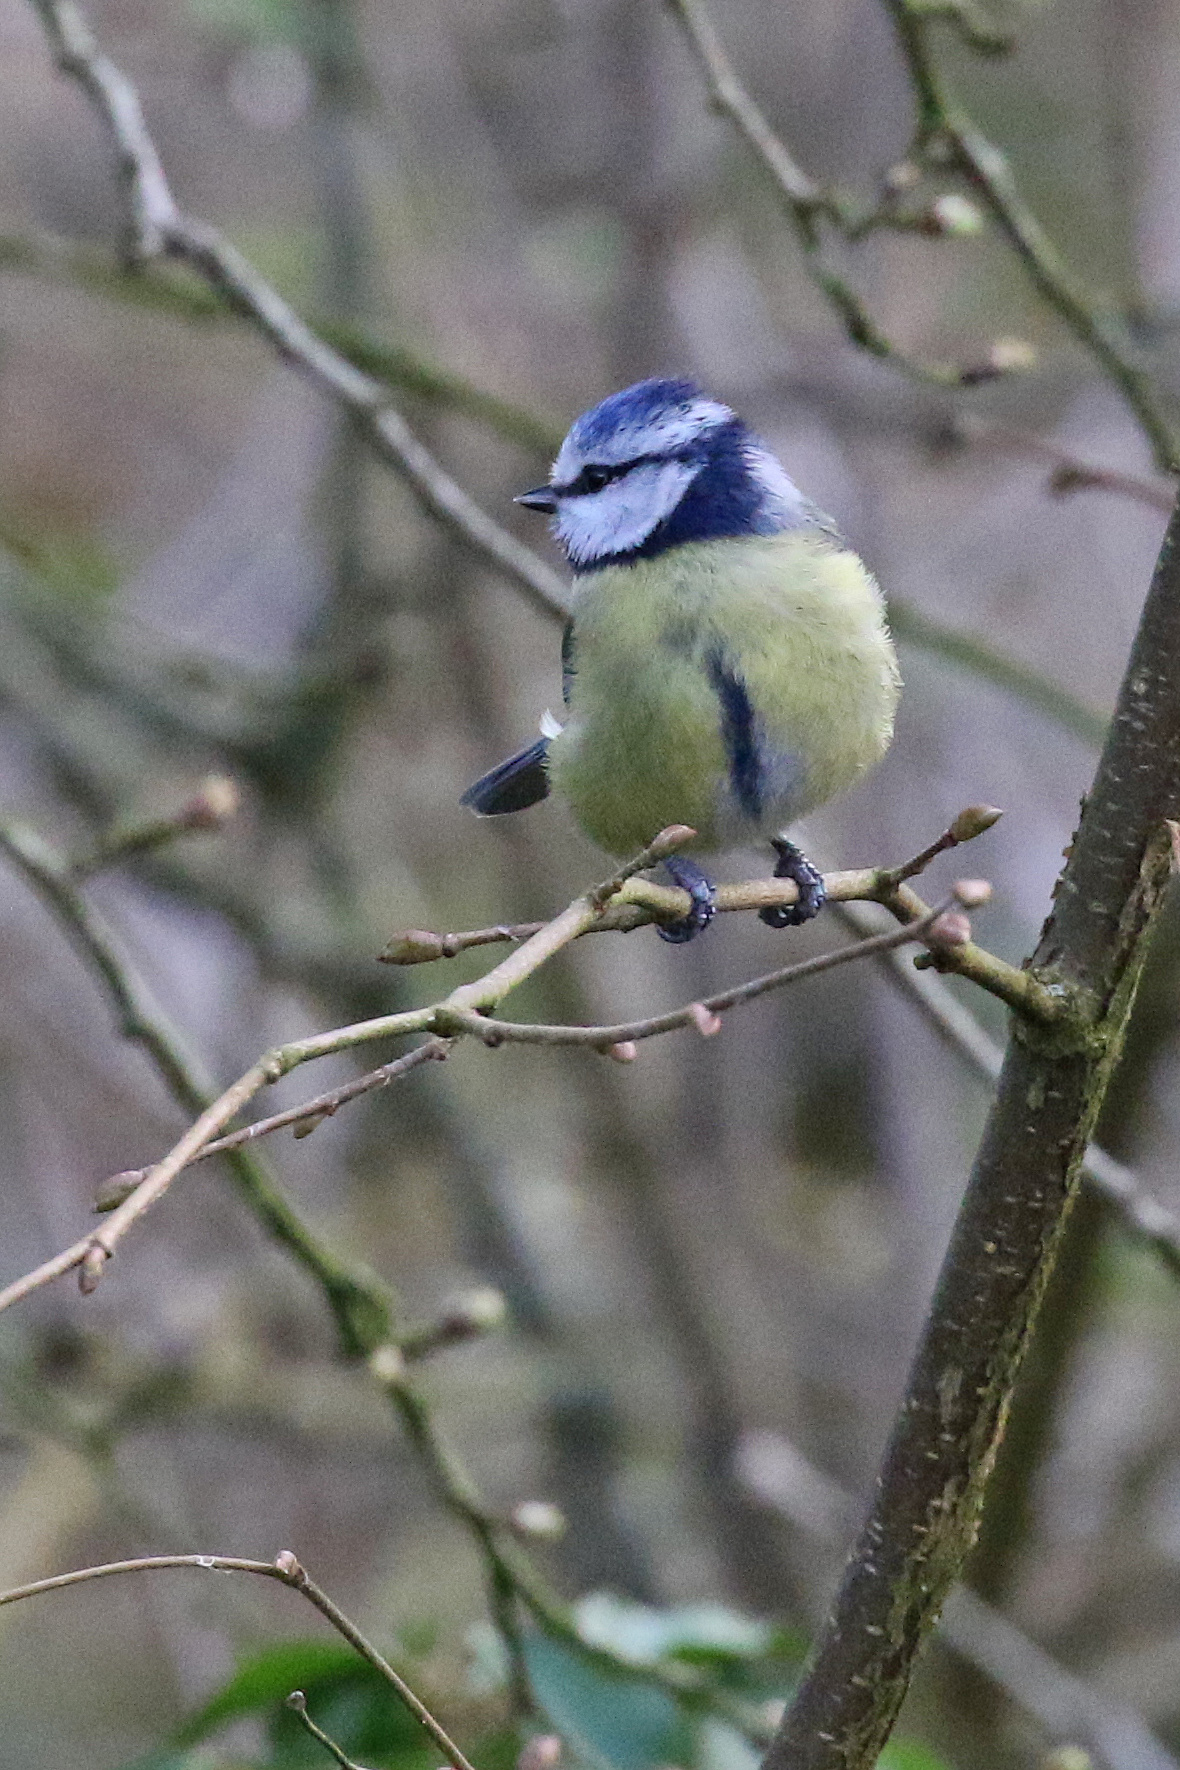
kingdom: Animalia
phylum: Chordata
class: Aves
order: Passeriformes
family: Paridae
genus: Cyanistes
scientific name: Cyanistes caeruleus
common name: Eurasian blue tit
